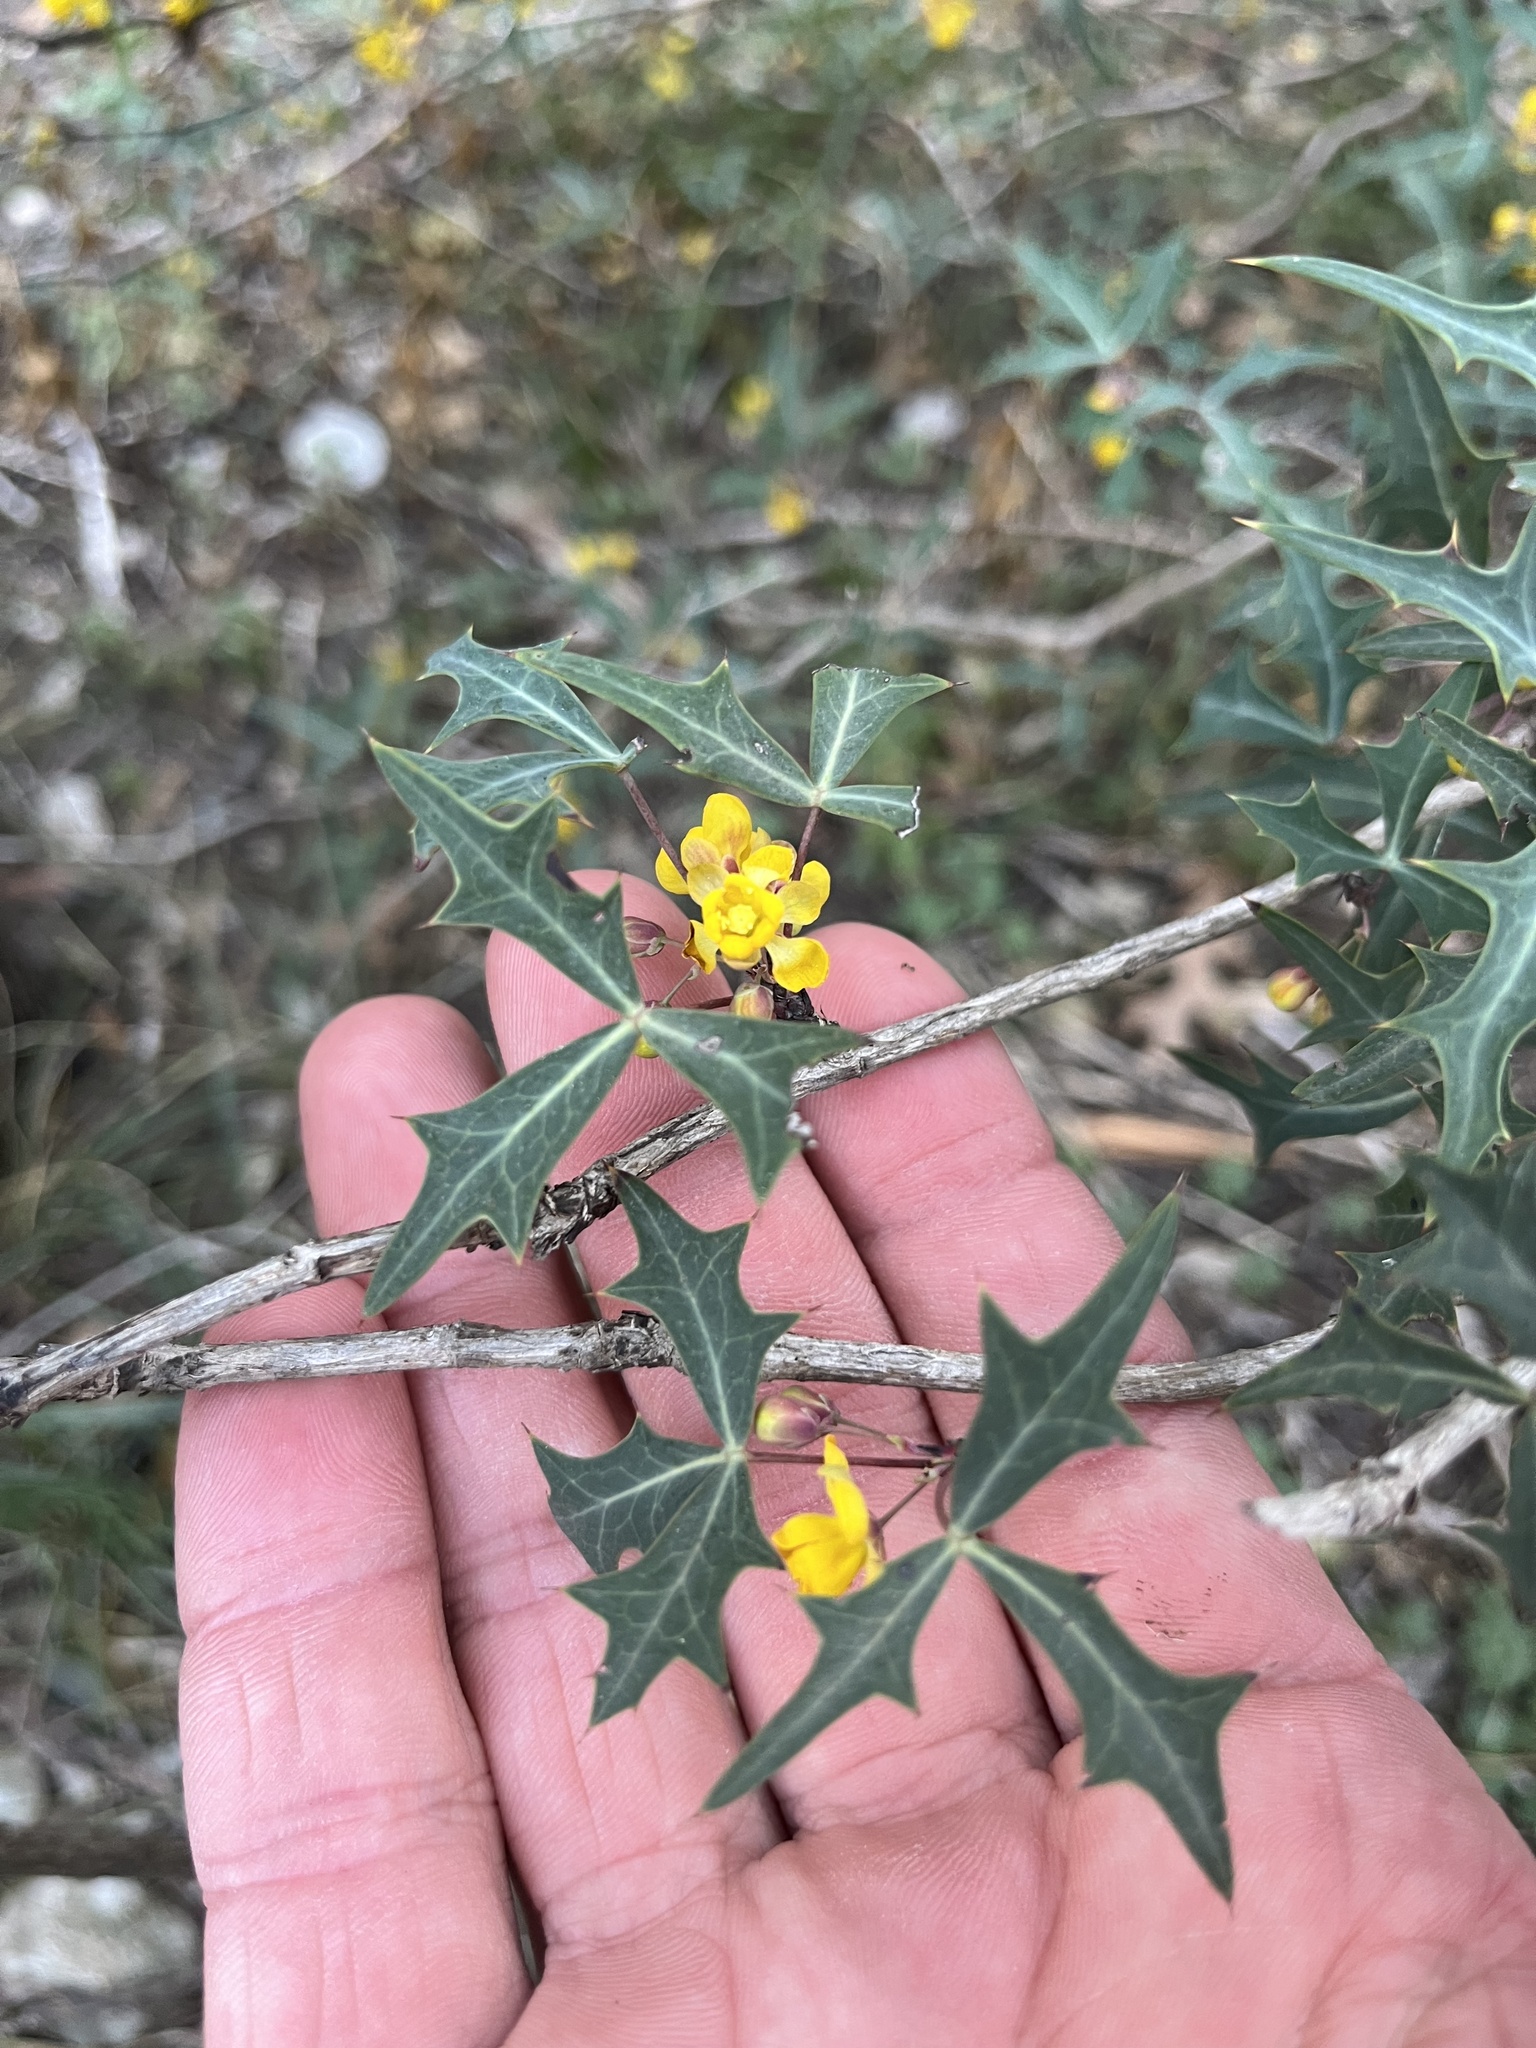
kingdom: Plantae
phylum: Tracheophyta
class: Magnoliopsida
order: Ranunculales
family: Berberidaceae
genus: Alloberberis
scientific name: Alloberberis trifoliolata
